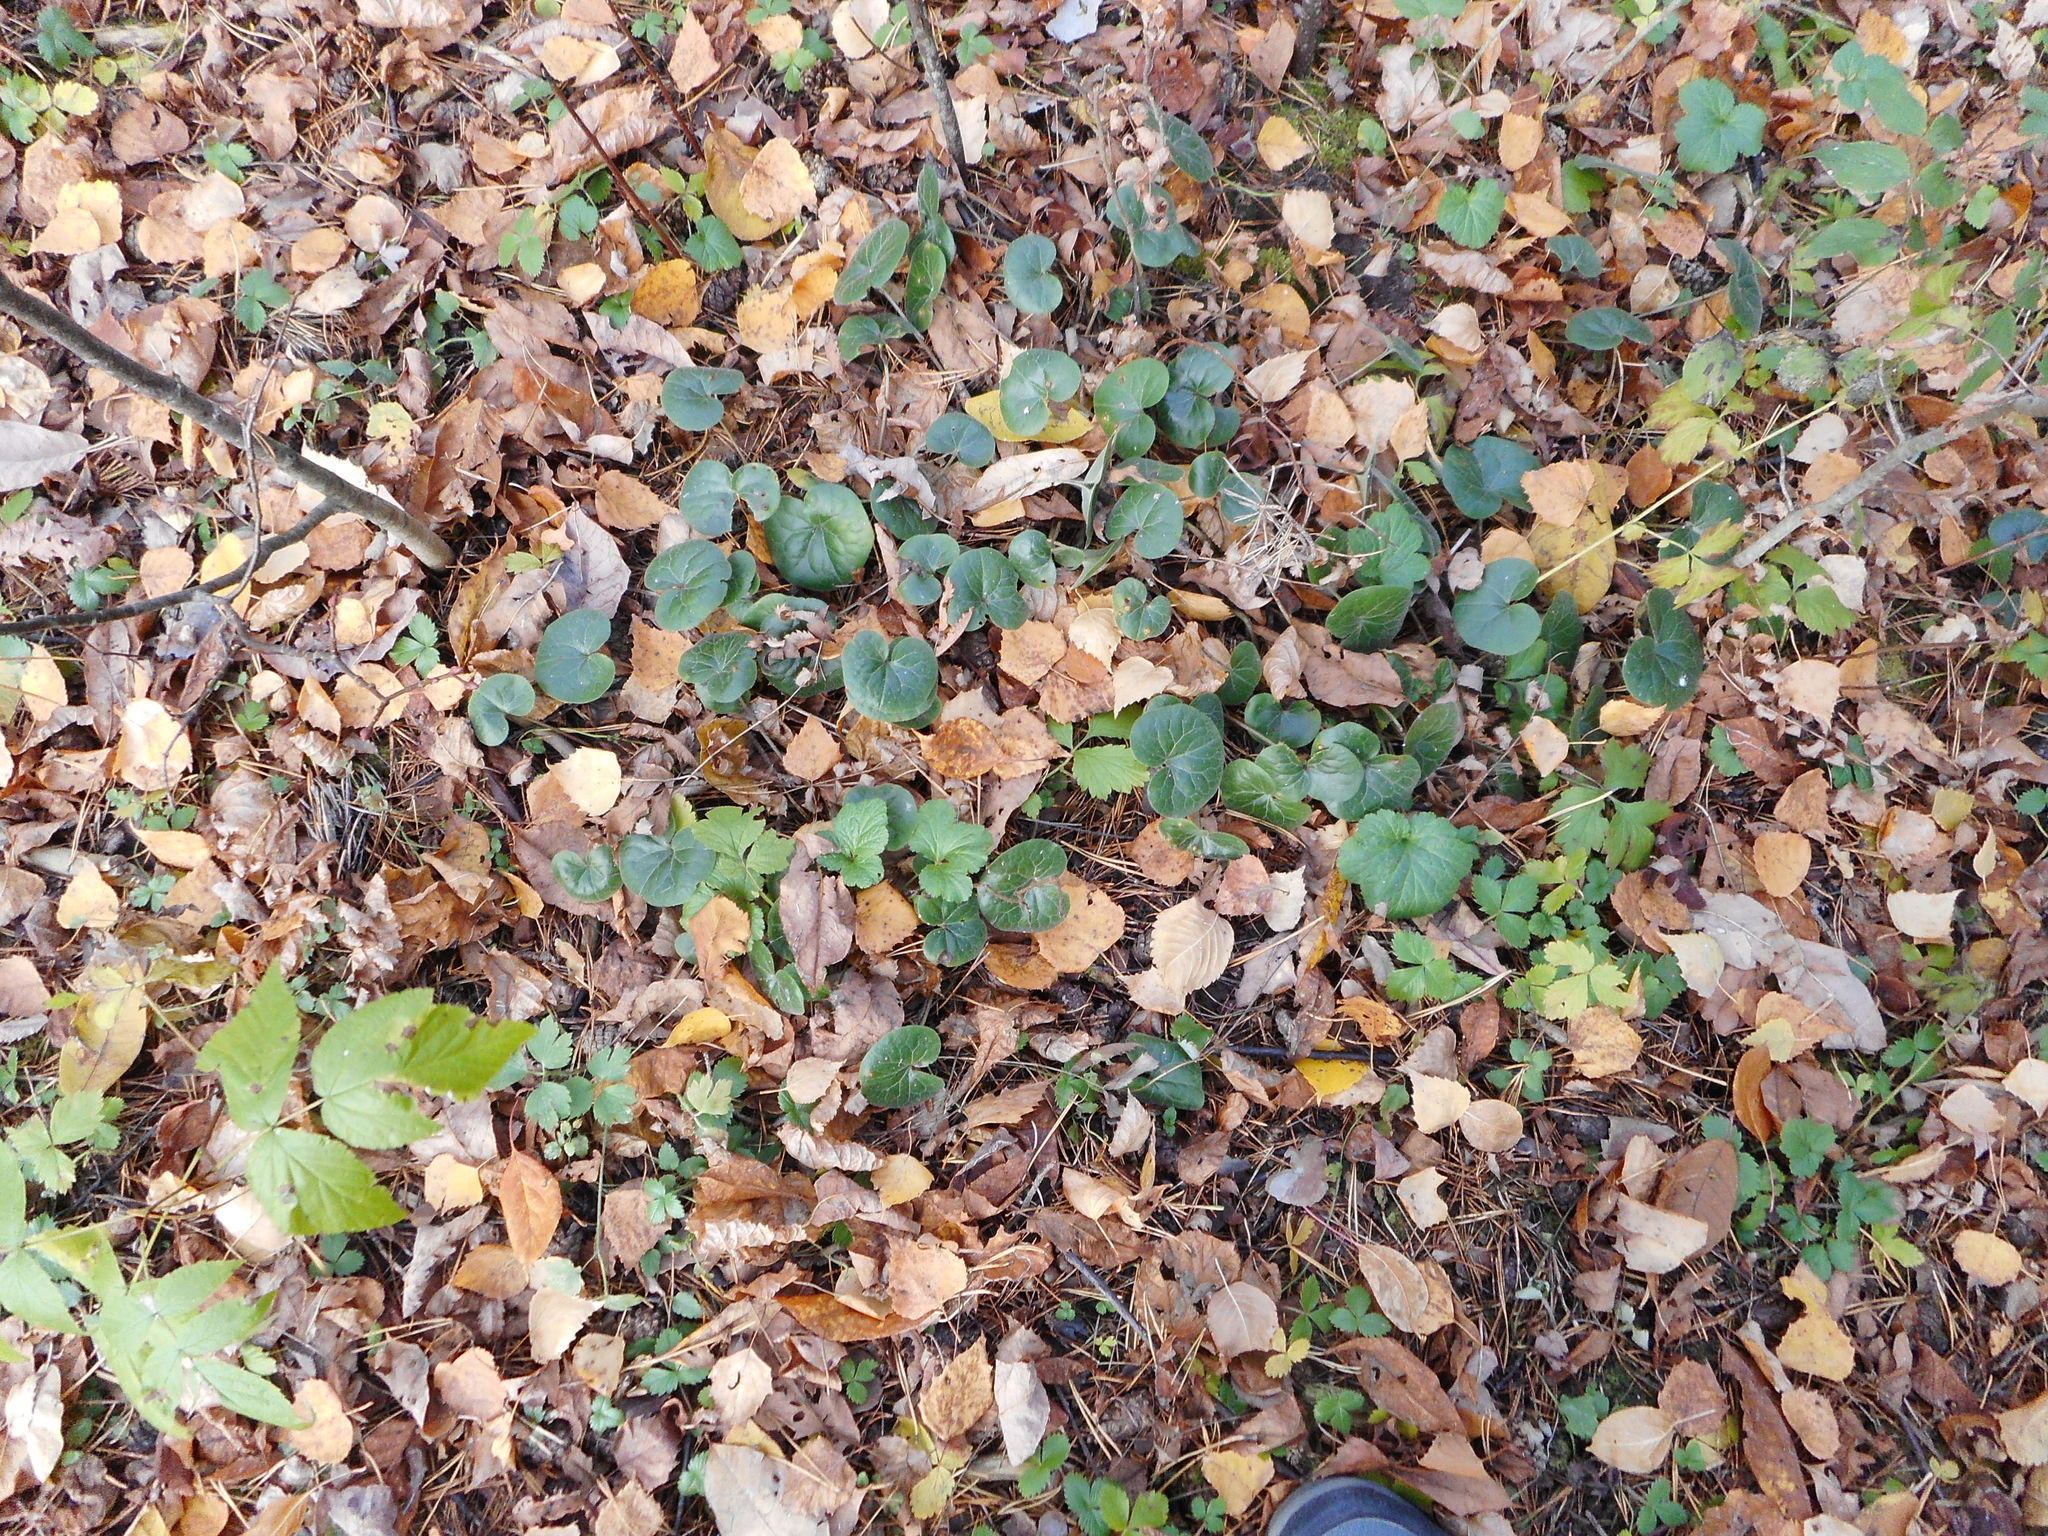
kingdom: Plantae
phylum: Tracheophyta
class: Magnoliopsida
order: Piperales
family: Aristolochiaceae
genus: Asarum
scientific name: Asarum europaeum
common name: Asarabacca
